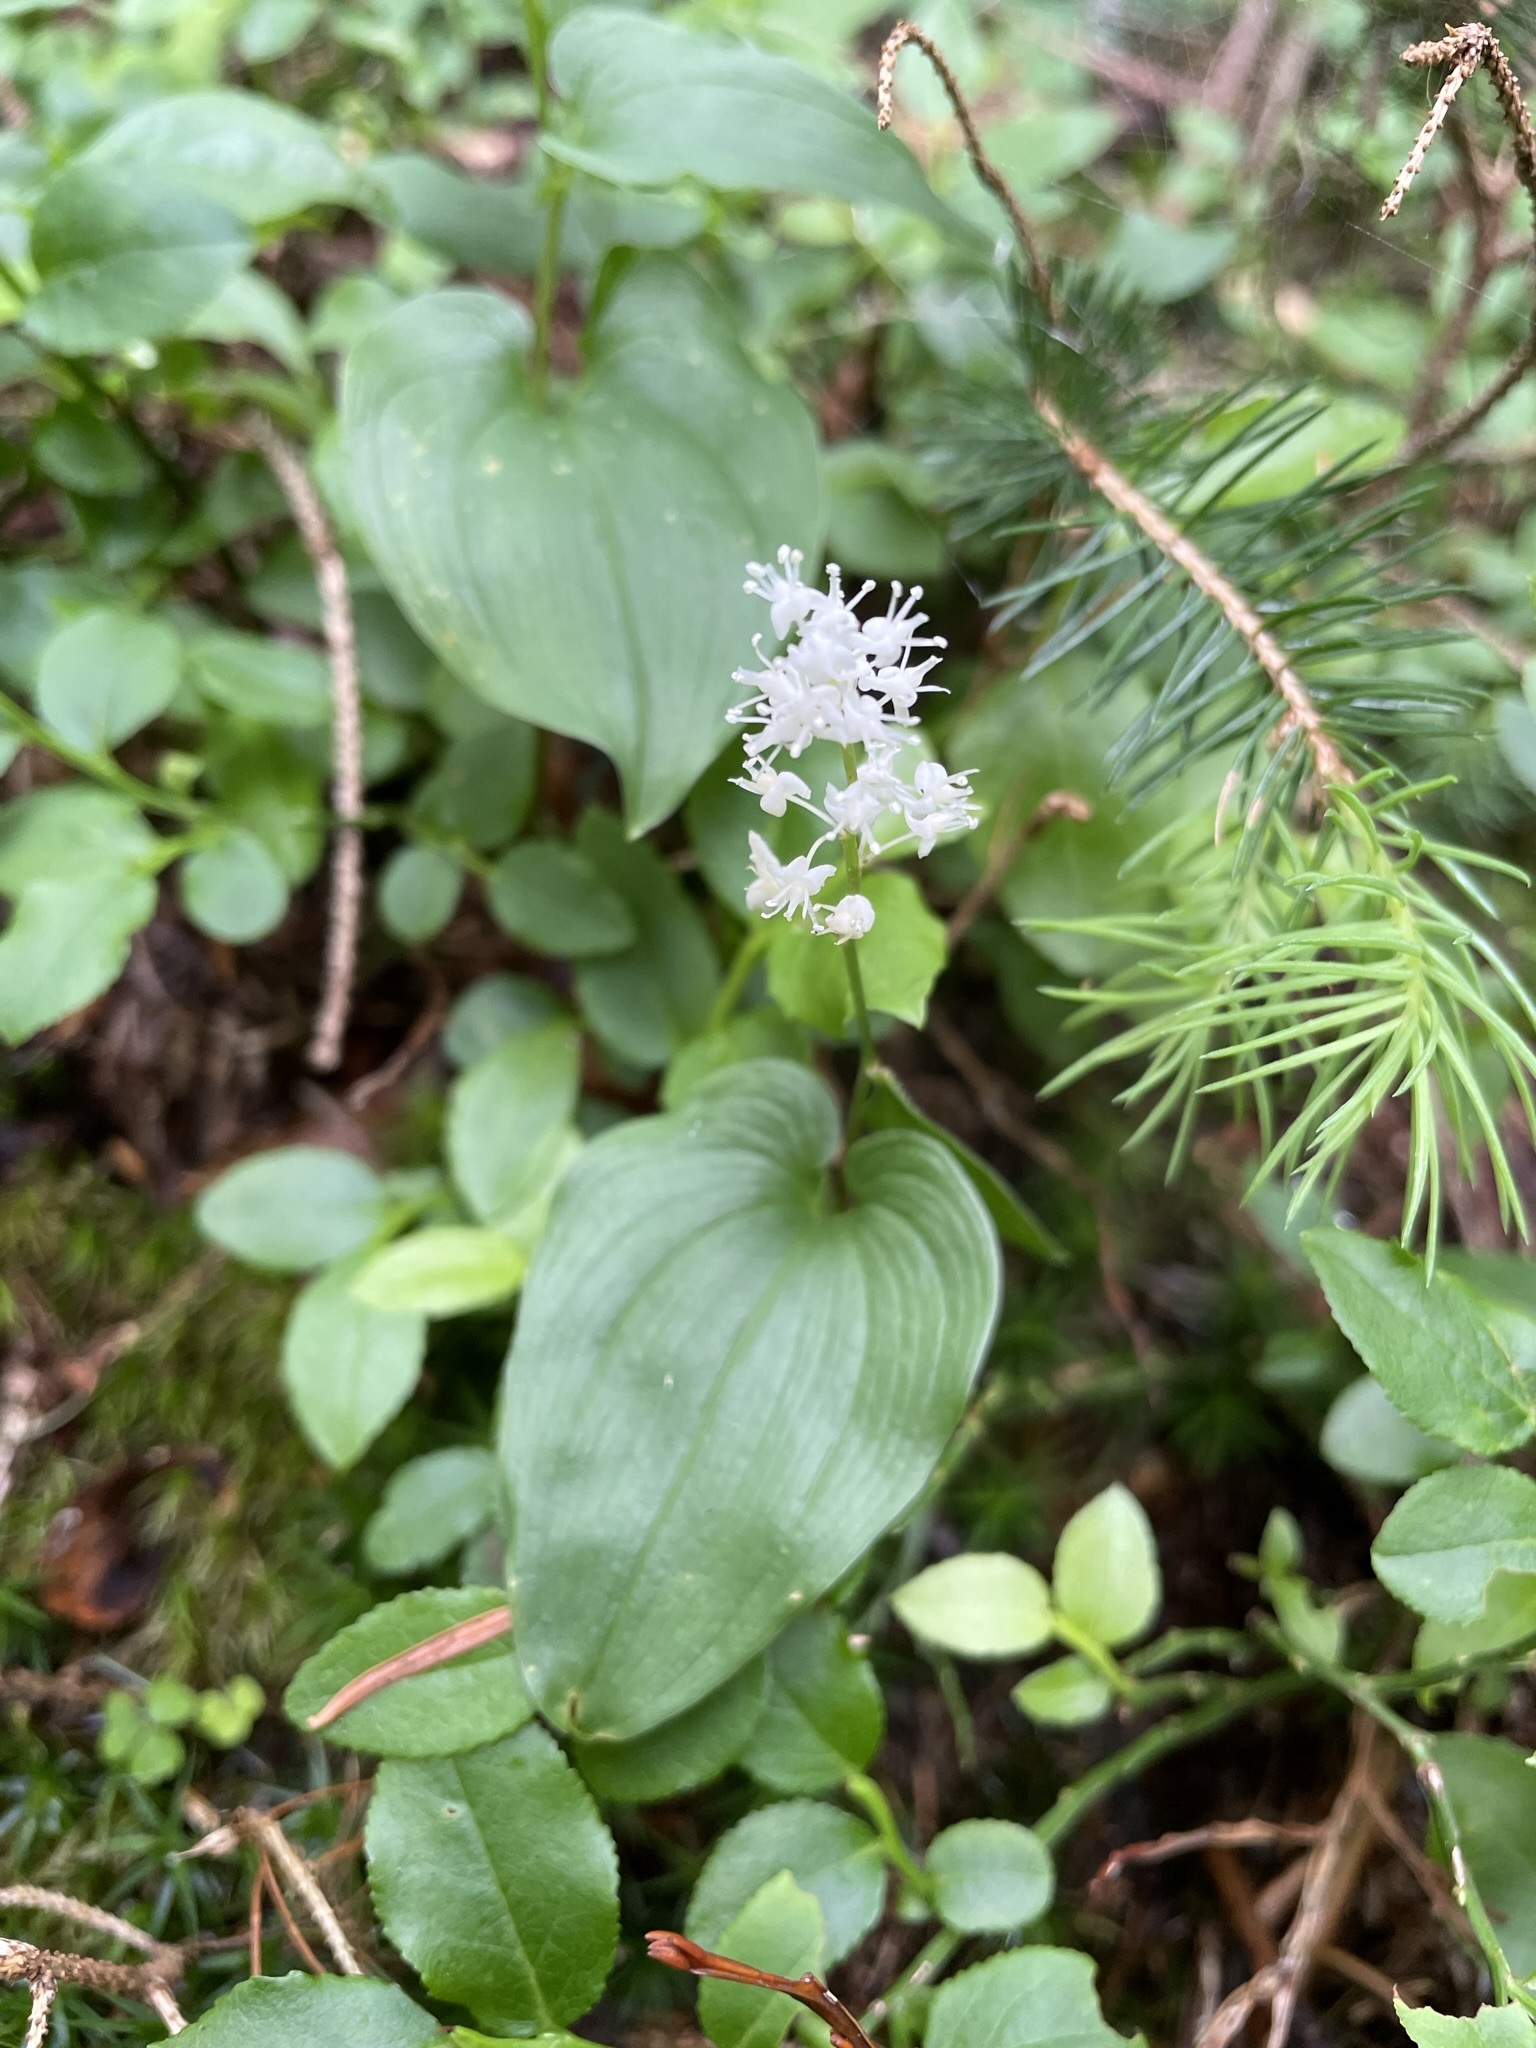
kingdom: Plantae
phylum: Tracheophyta
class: Liliopsida
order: Asparagales
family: Asparagaceae
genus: Maianthemum
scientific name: Maianthemum bifolium
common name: May lily
